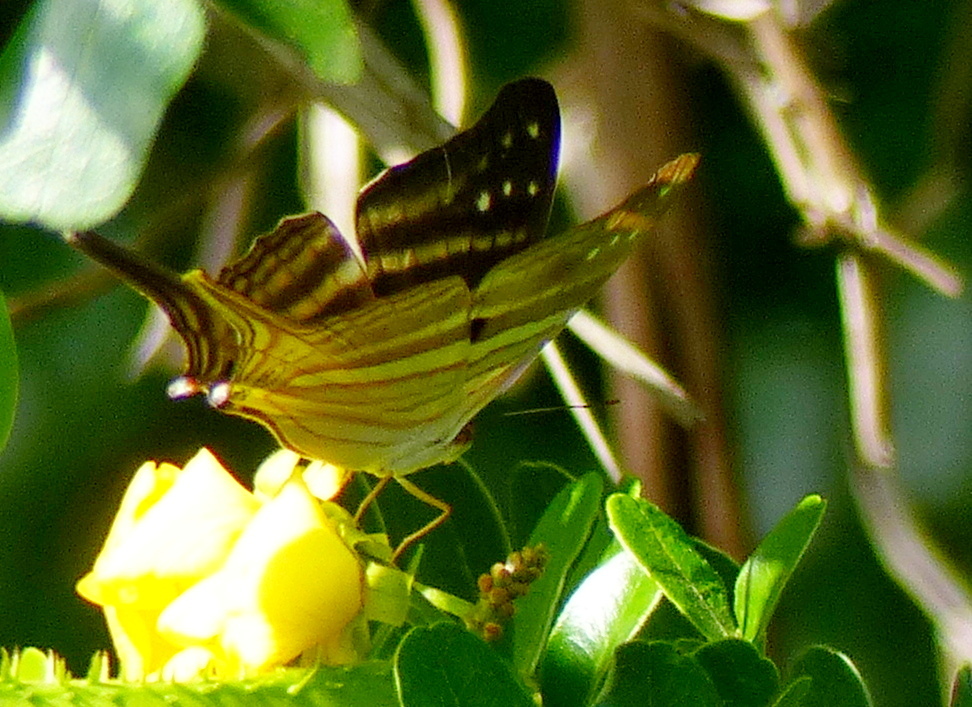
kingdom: Animalia
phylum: Arthropoda
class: Insecta
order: Lepidoptera
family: Nymphalidae
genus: Marpesia
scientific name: Marpesia chiron
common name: Many-banded daggerwing
